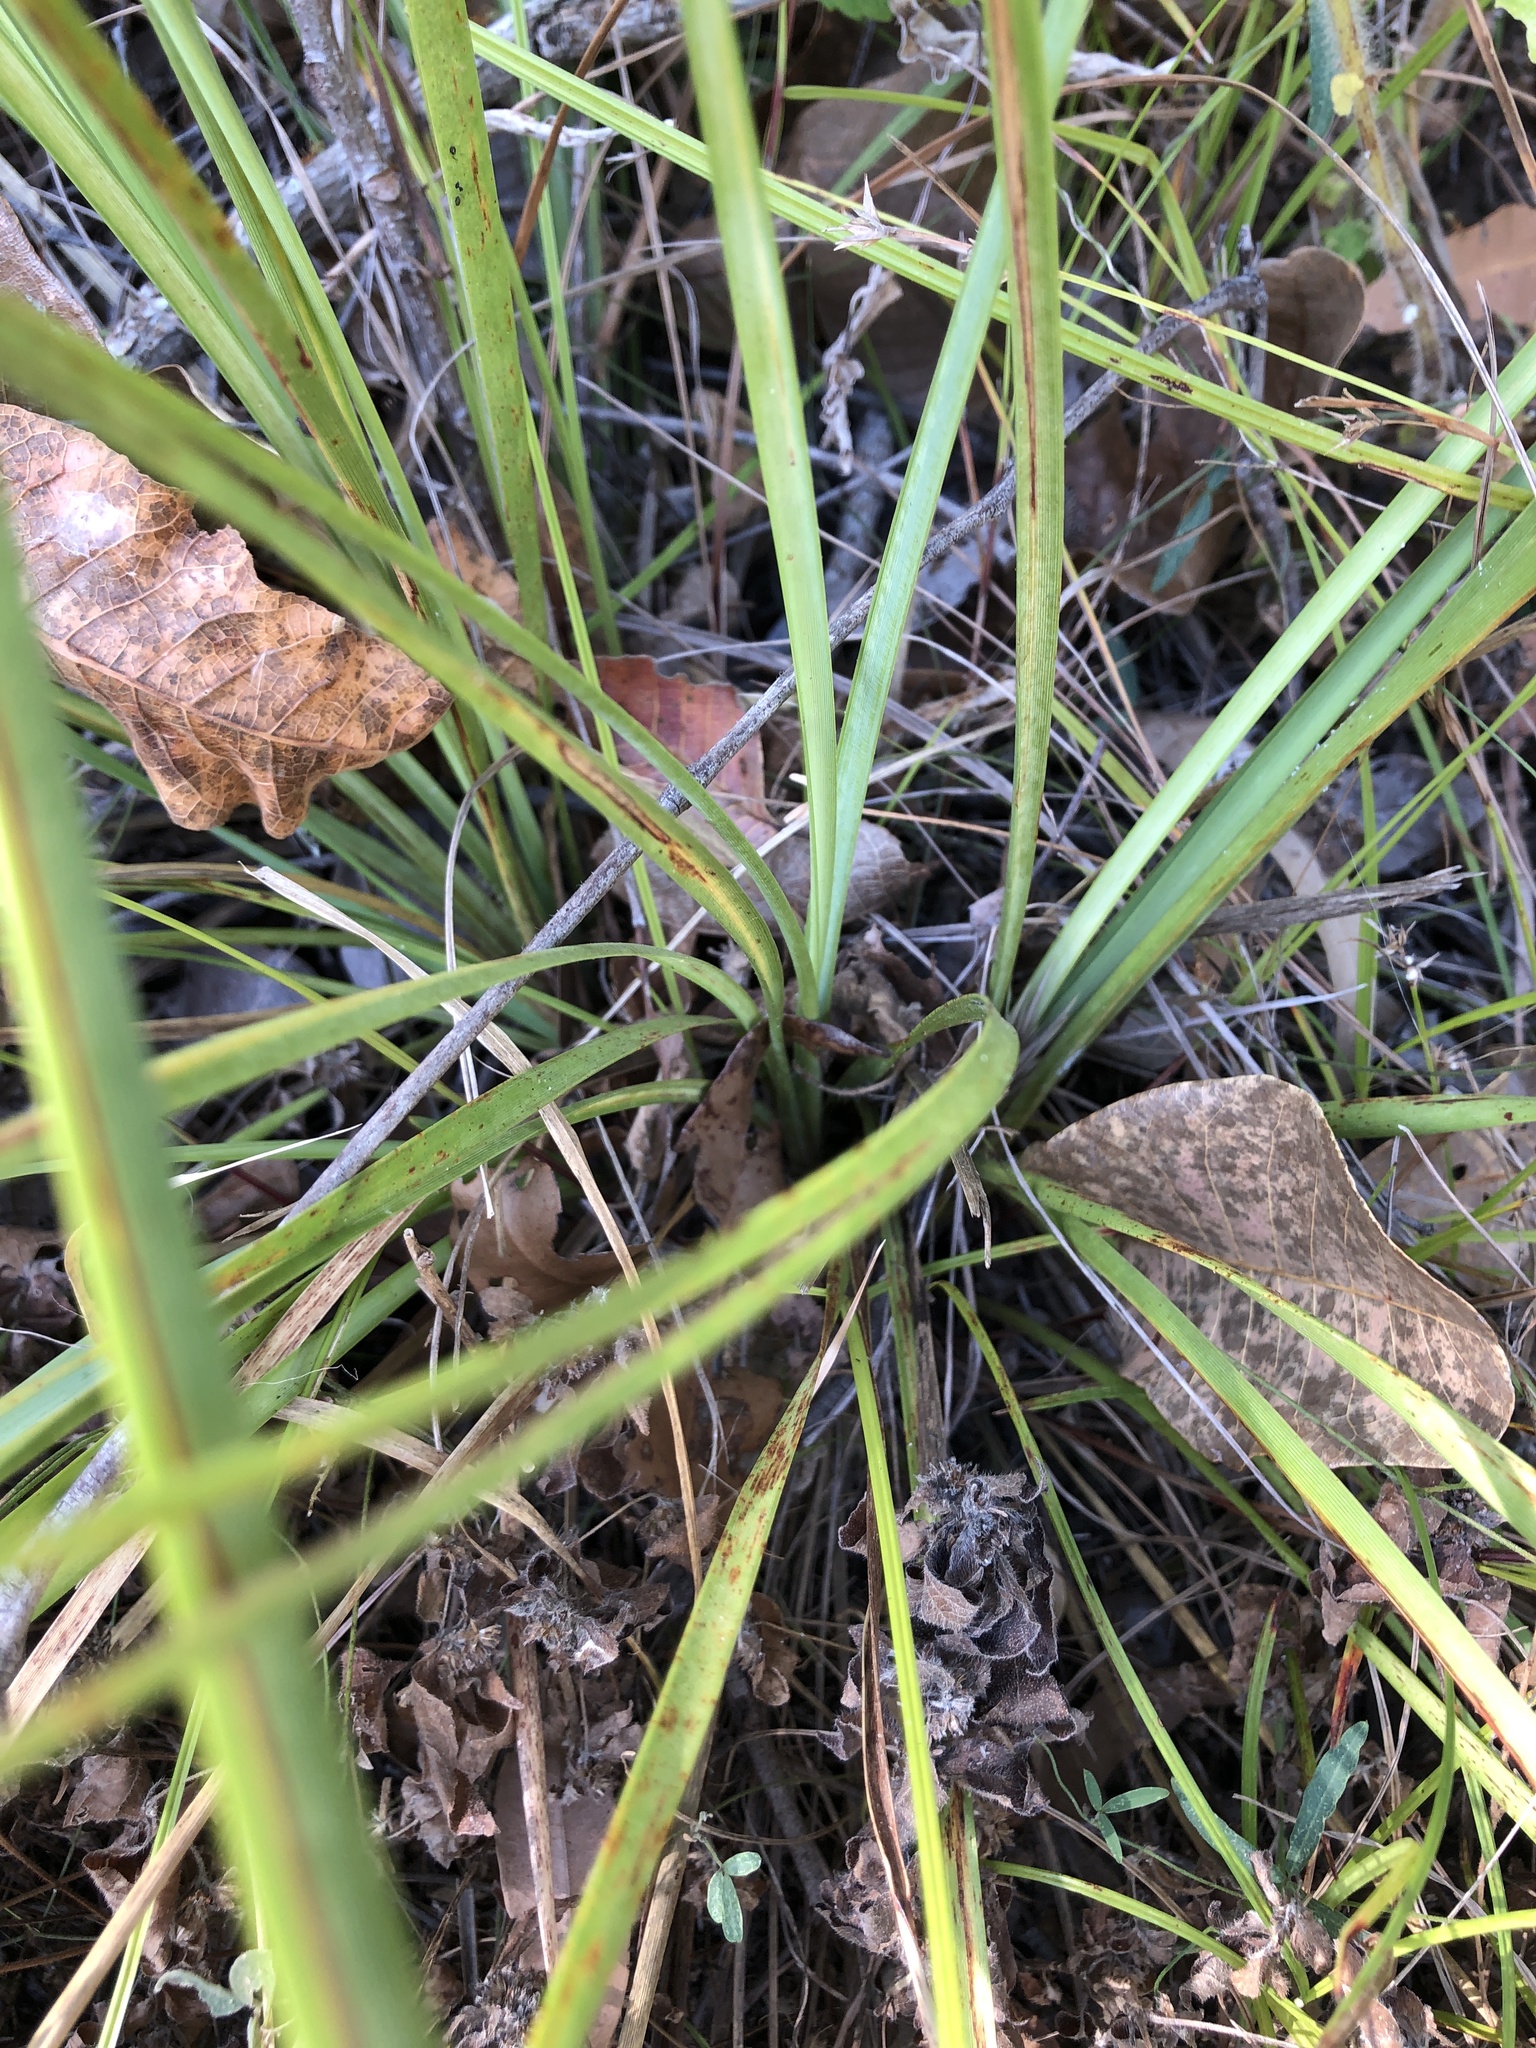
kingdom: Plantae
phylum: Tracheophyta
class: Liliopsida
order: Asparagales
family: Asparagaceae
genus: Lomandra
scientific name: Lomandra longifolia
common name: Longleaf mat-rush
